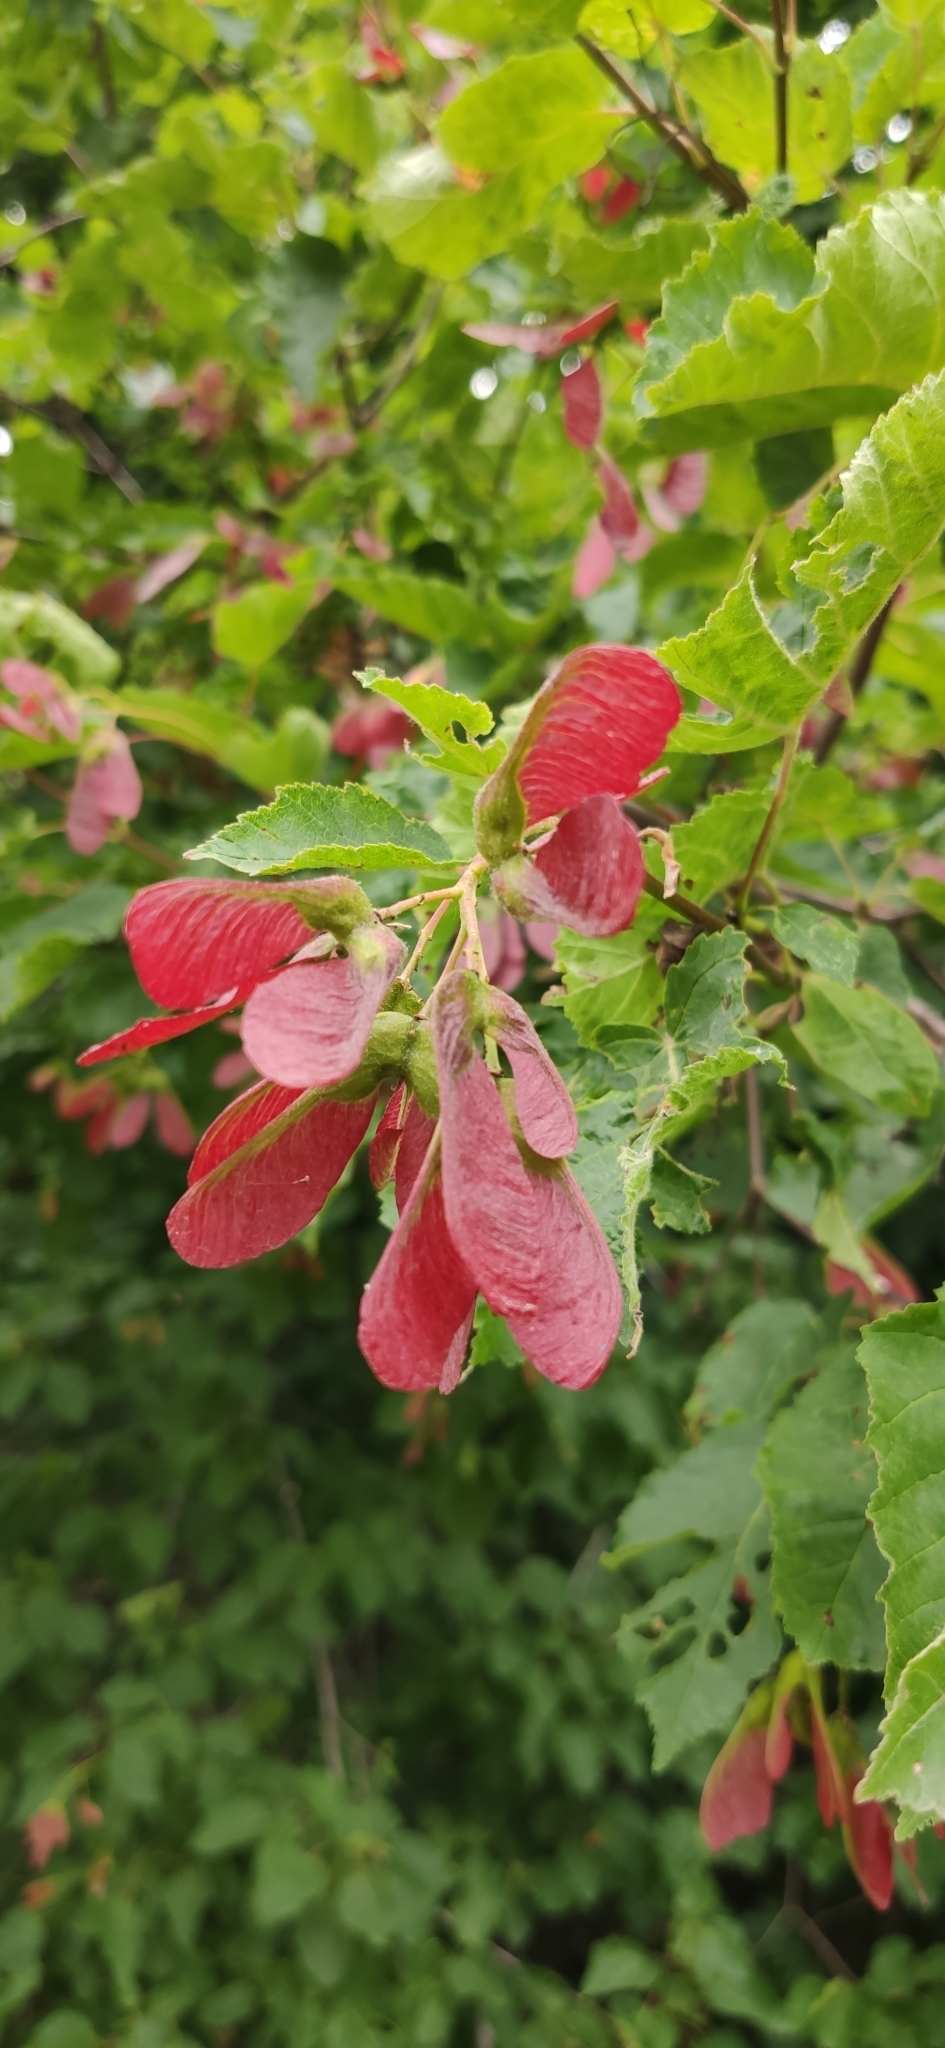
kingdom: Plantae
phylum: Tracheophyta
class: Magnoliopsida
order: Sapindales
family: Sapindaceae
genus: Acer
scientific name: Acer tataricum
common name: Tartar maple
